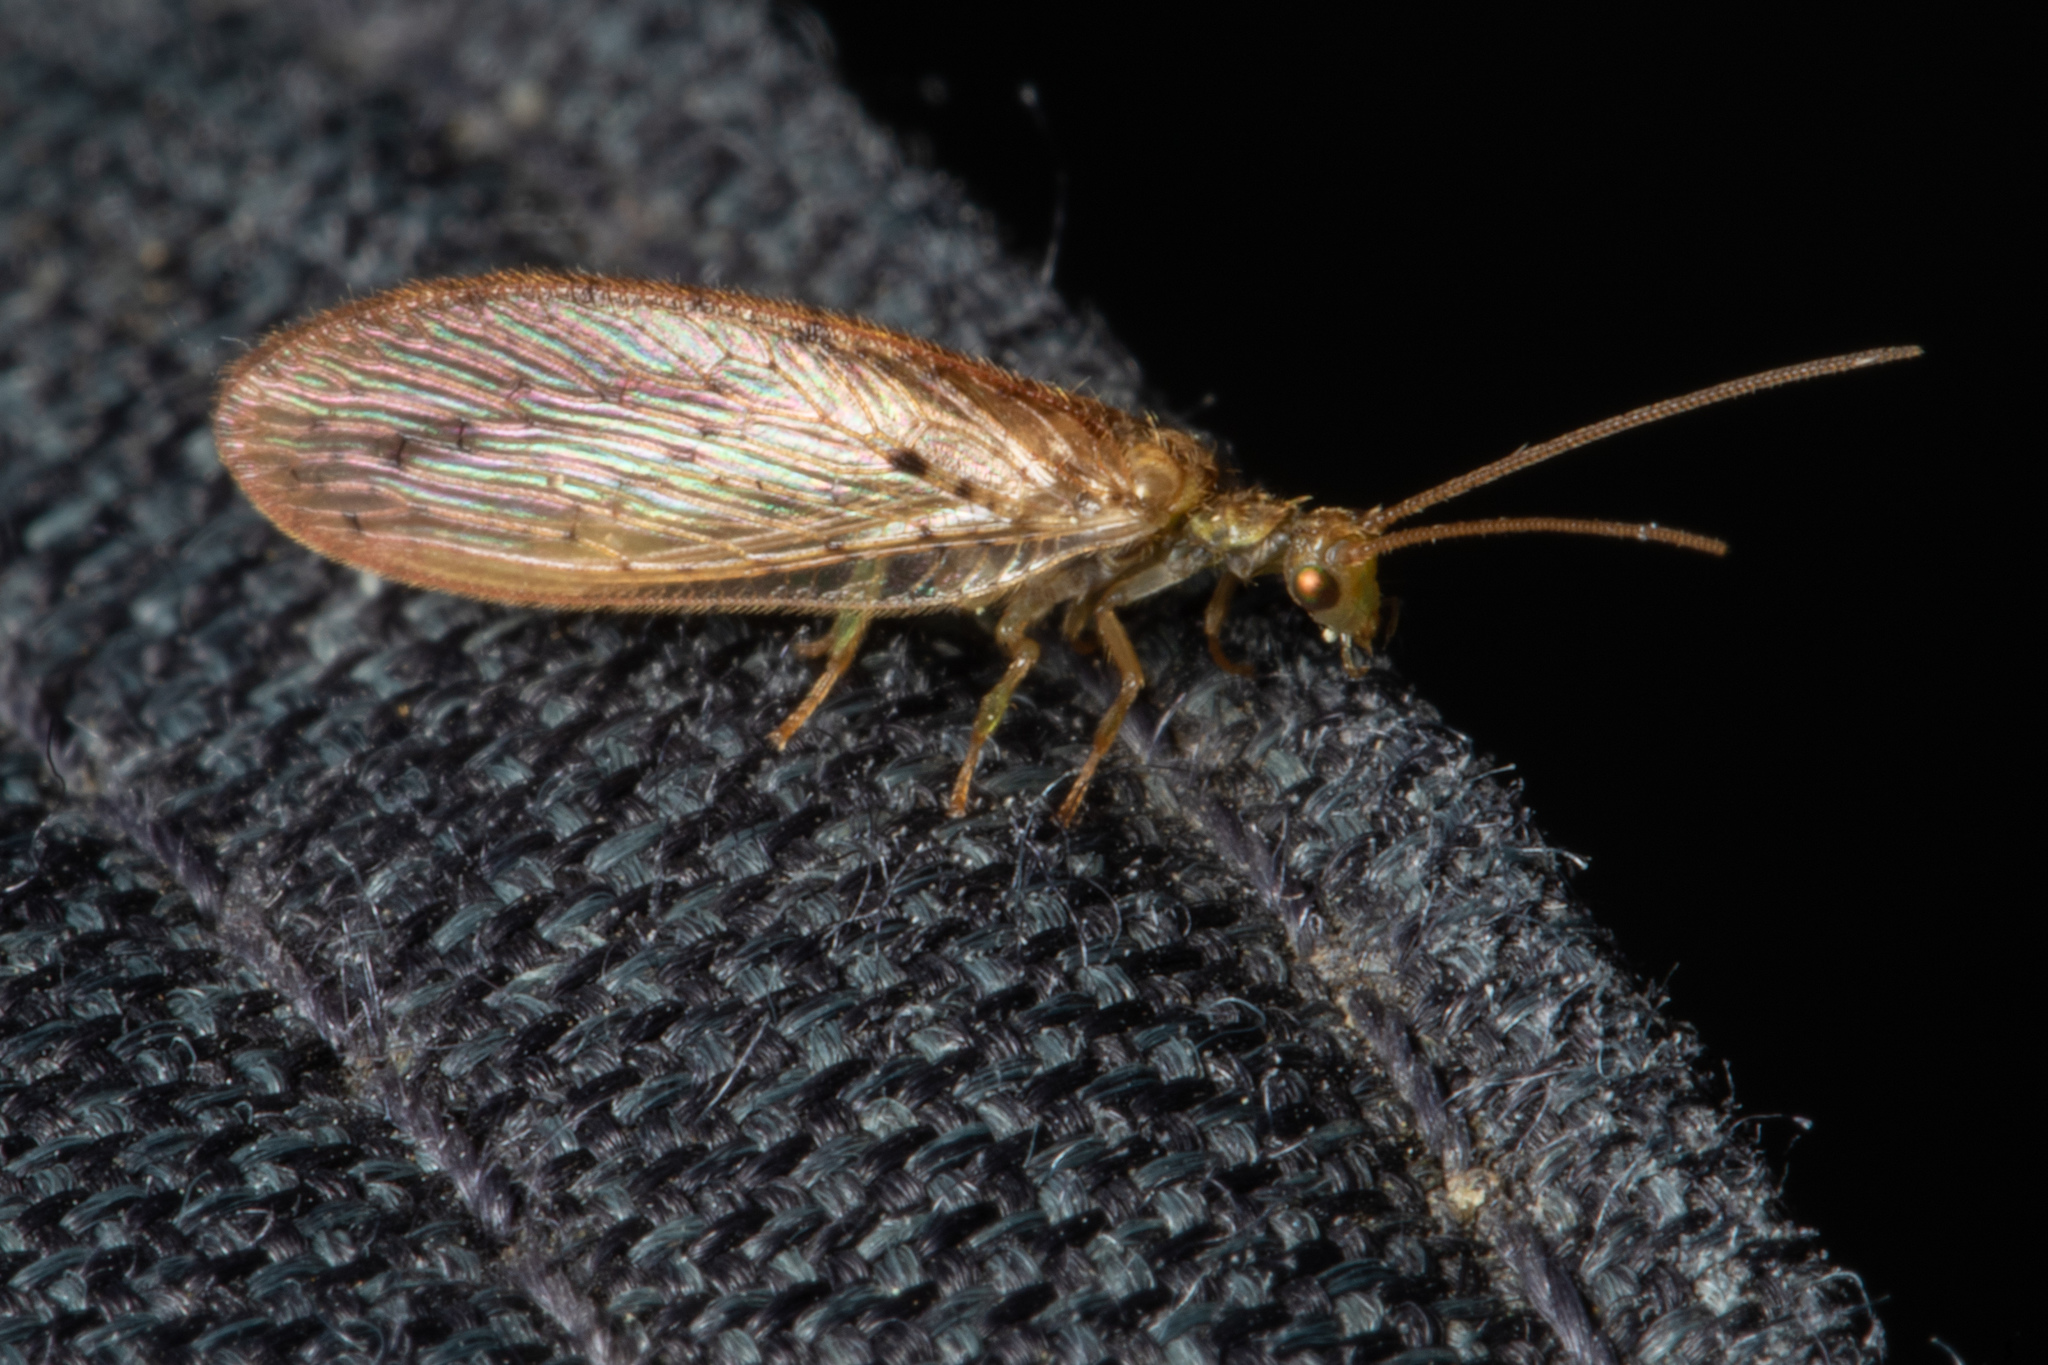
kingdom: Animalia
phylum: Arthropoda
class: Insecta
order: Neuroptera
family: Hemerobiidae
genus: Micromus
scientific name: Micromus tasmaniae
